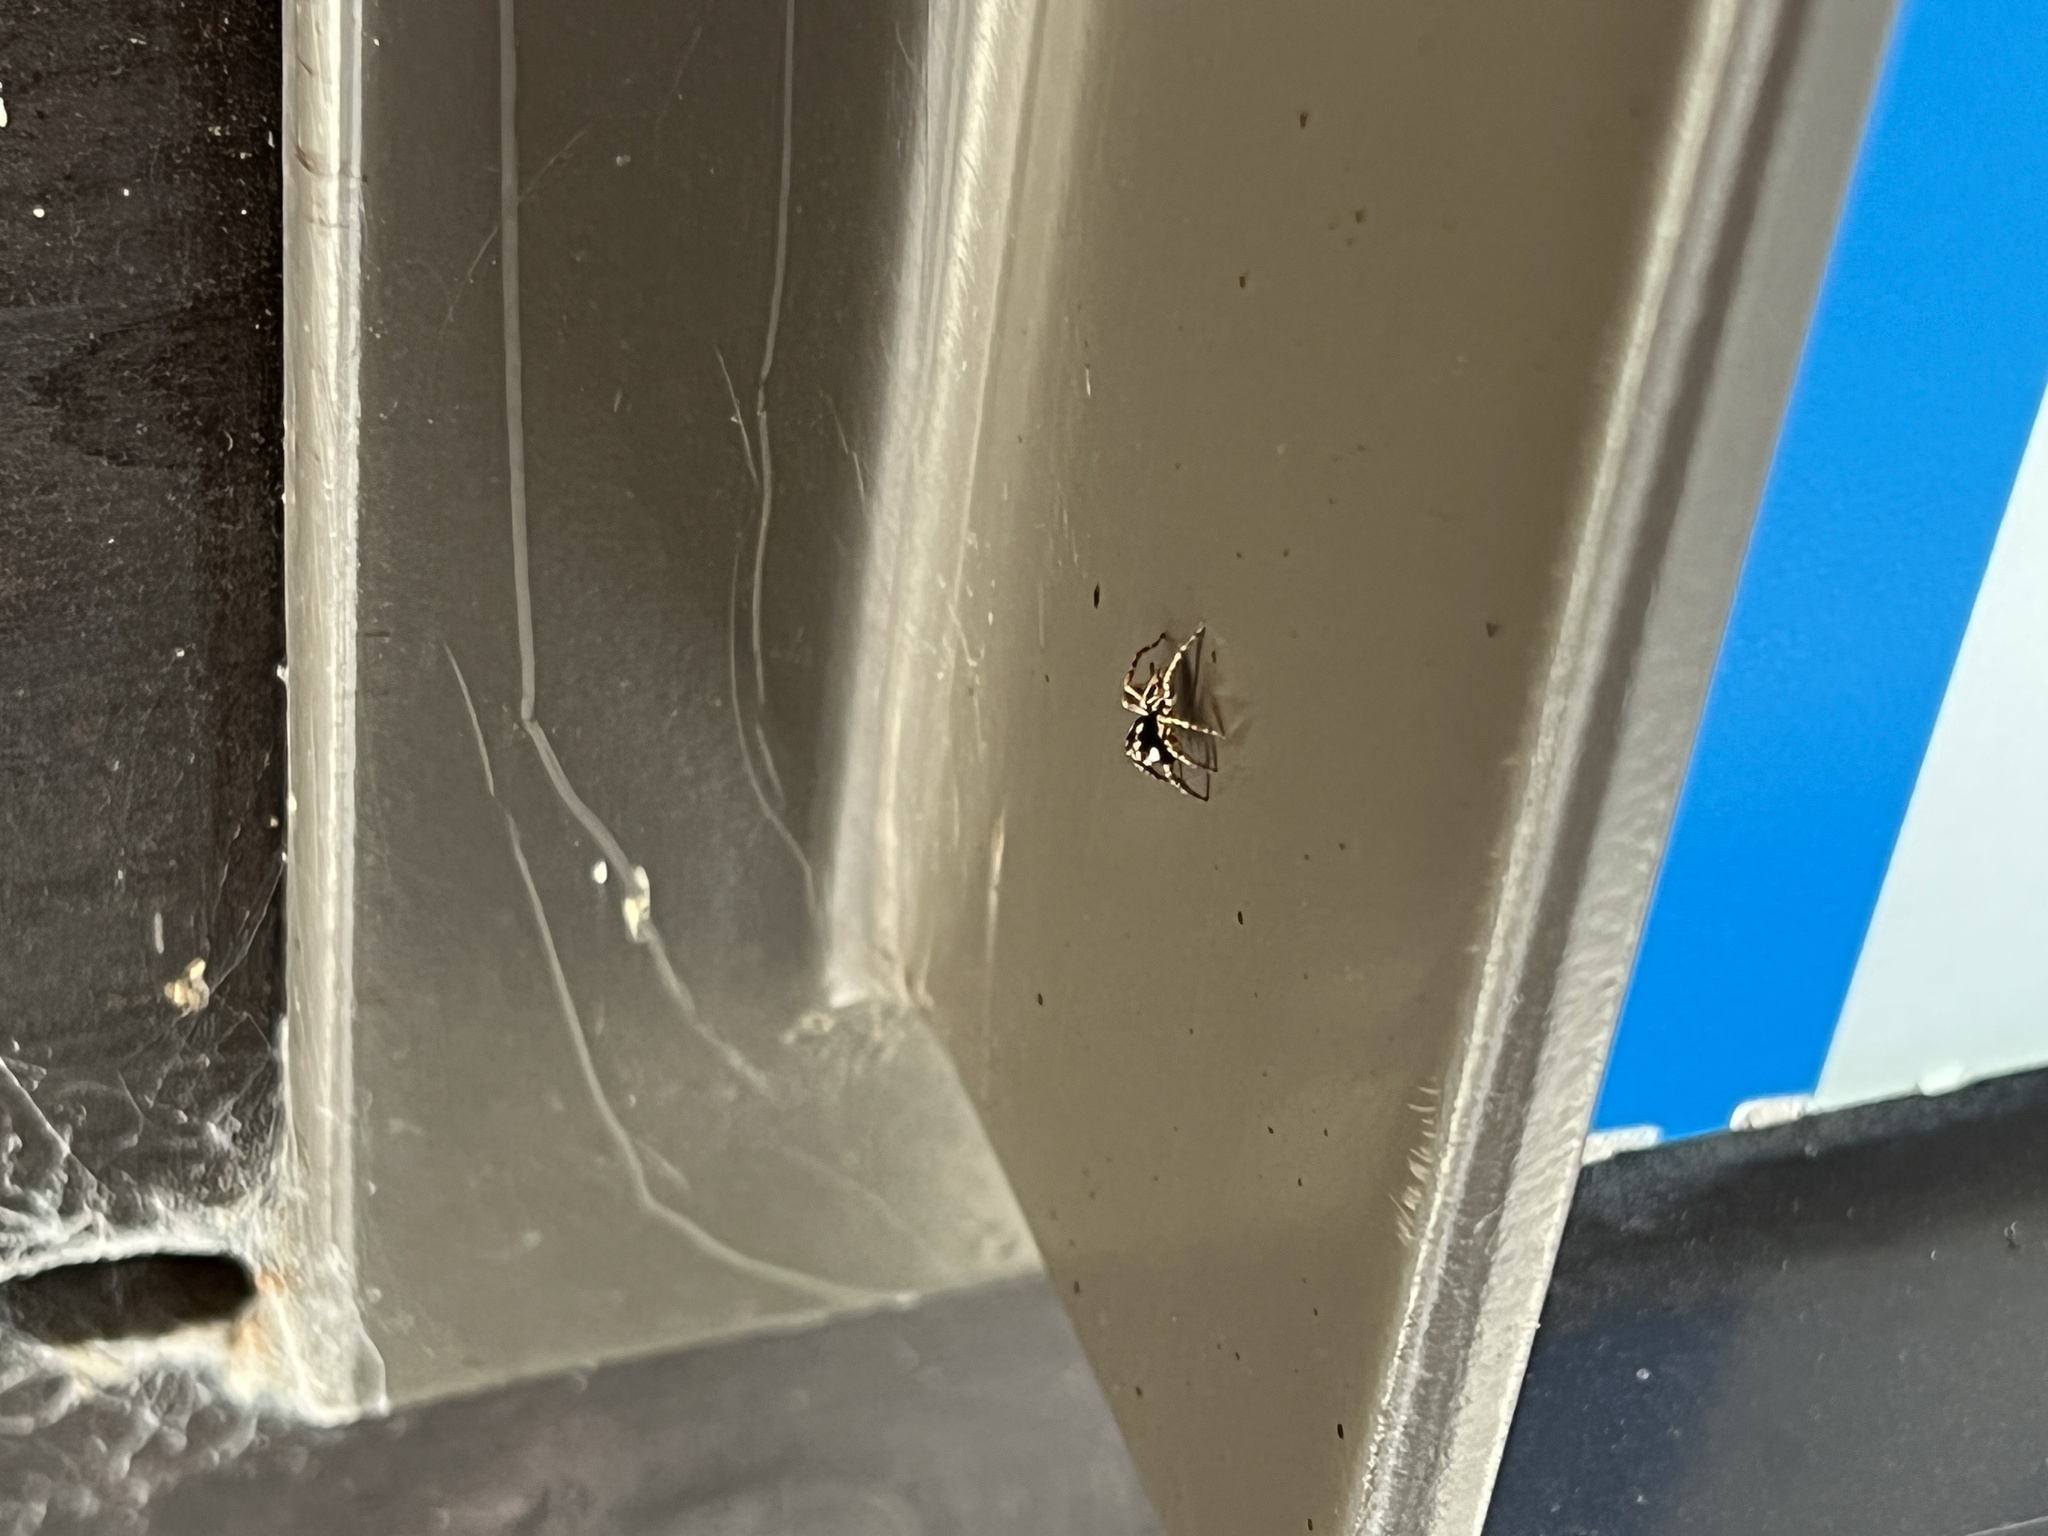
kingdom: Animalia
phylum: Arthropoda
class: Arachnida
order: Araneae
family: Salticidae
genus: Anasaitis
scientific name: Anasaitis canosa
